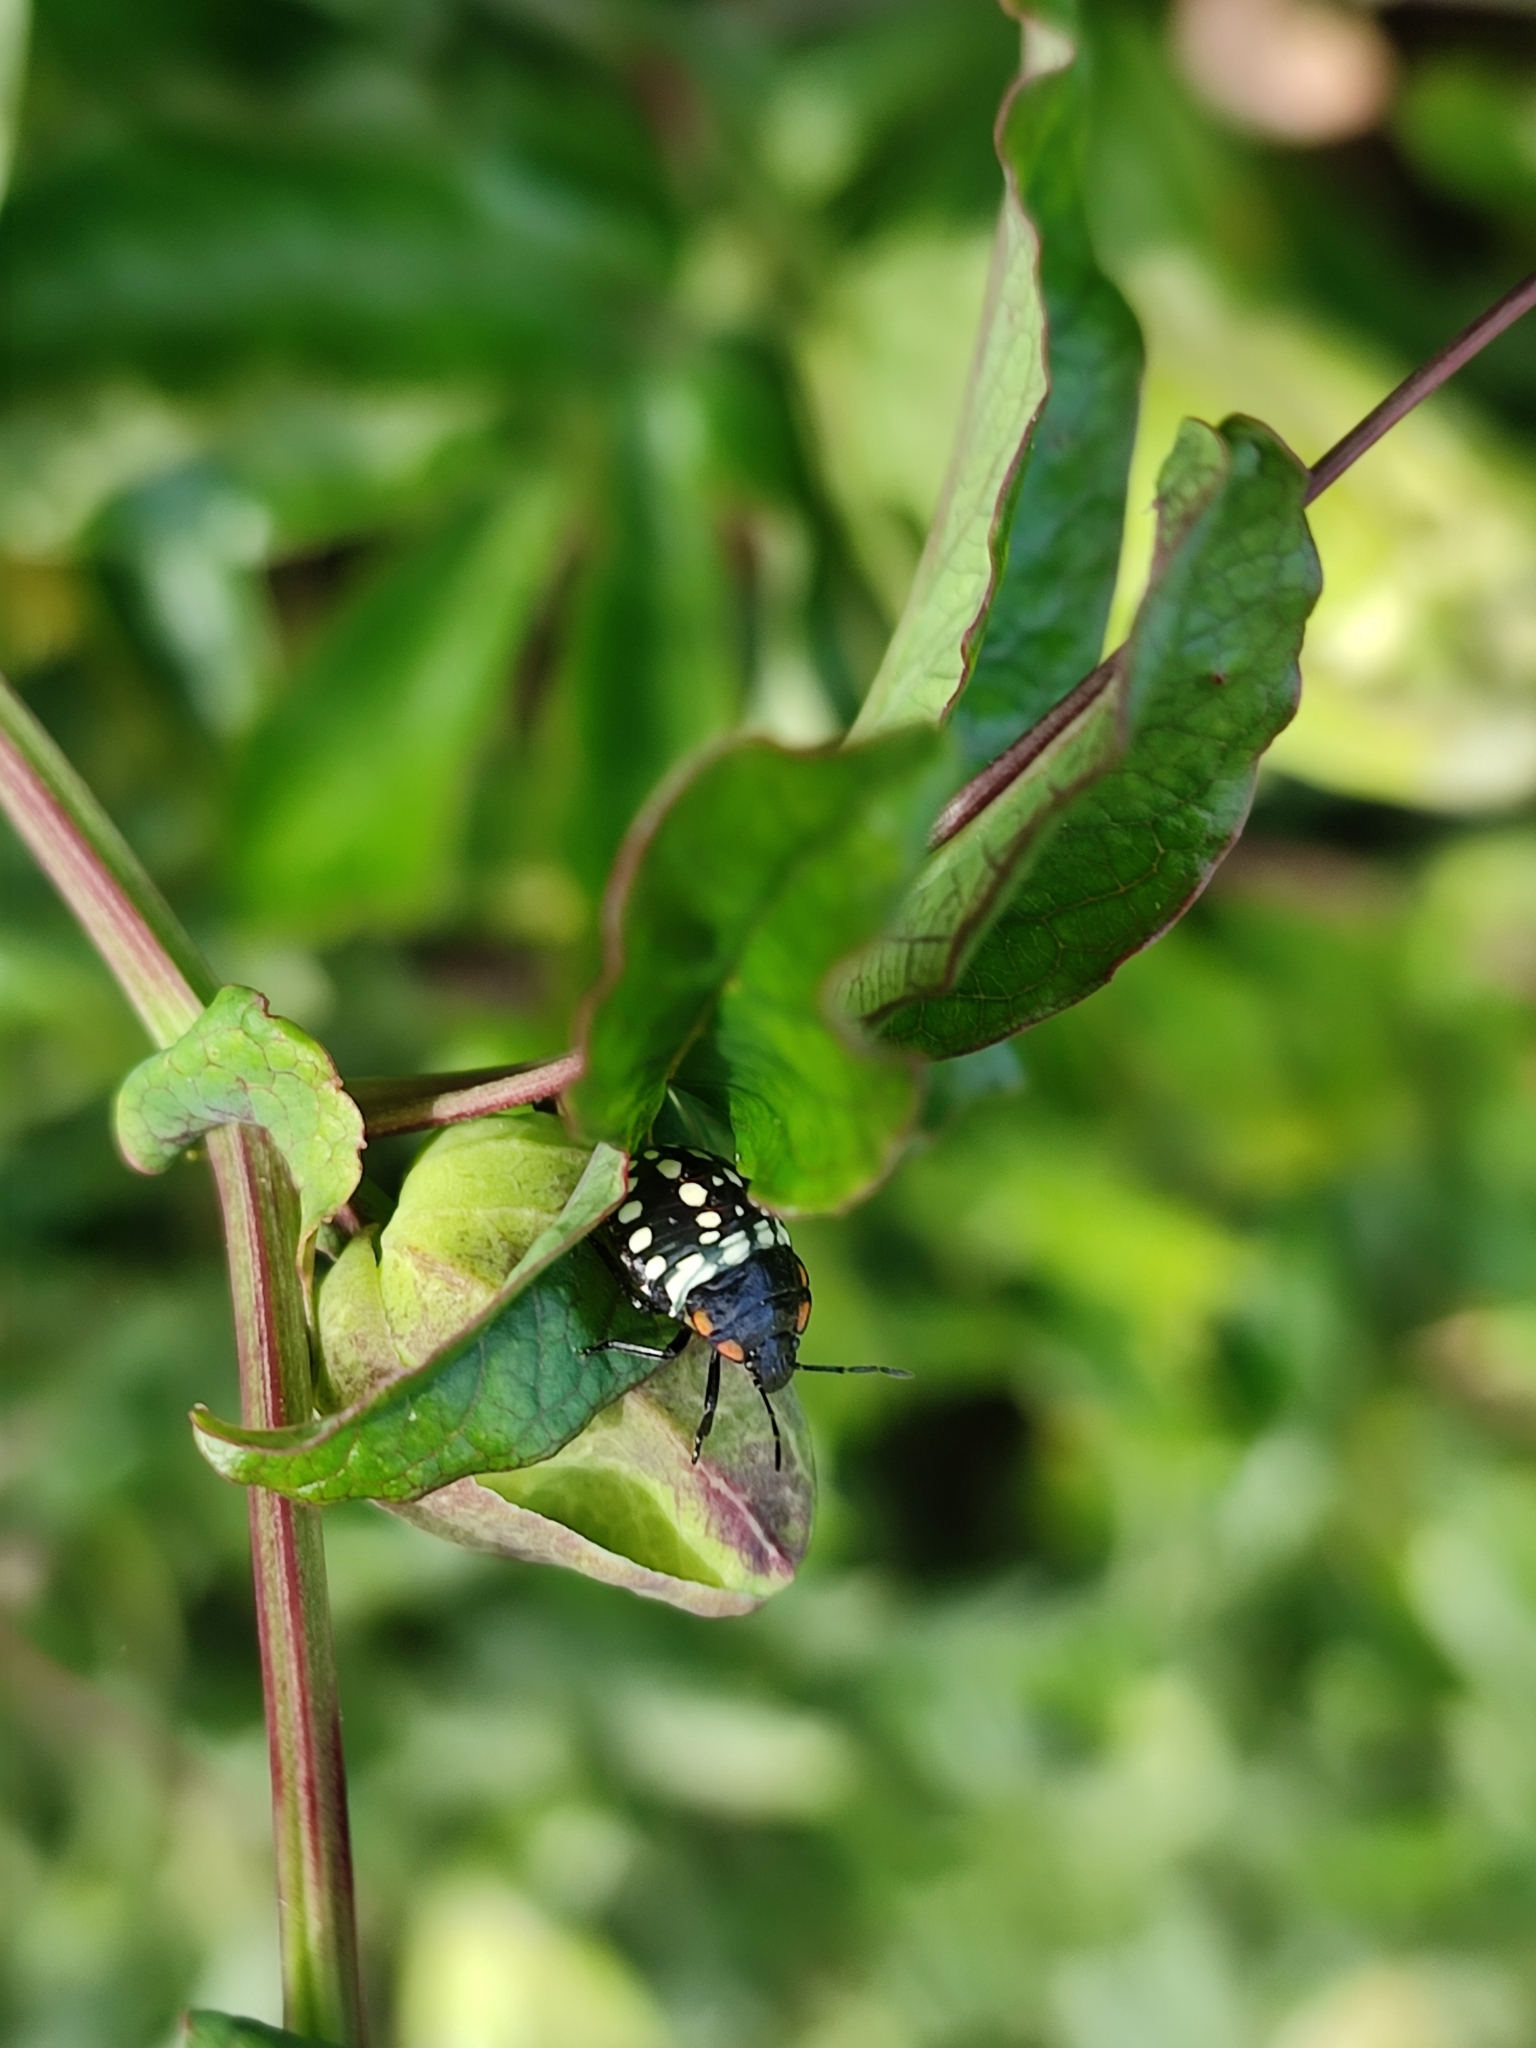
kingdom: Animalia
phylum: Arthropoda
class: Insecta
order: Hemiptera
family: Pentatomidae
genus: Nezara
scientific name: Nezara viridula
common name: Southern green stink bug
